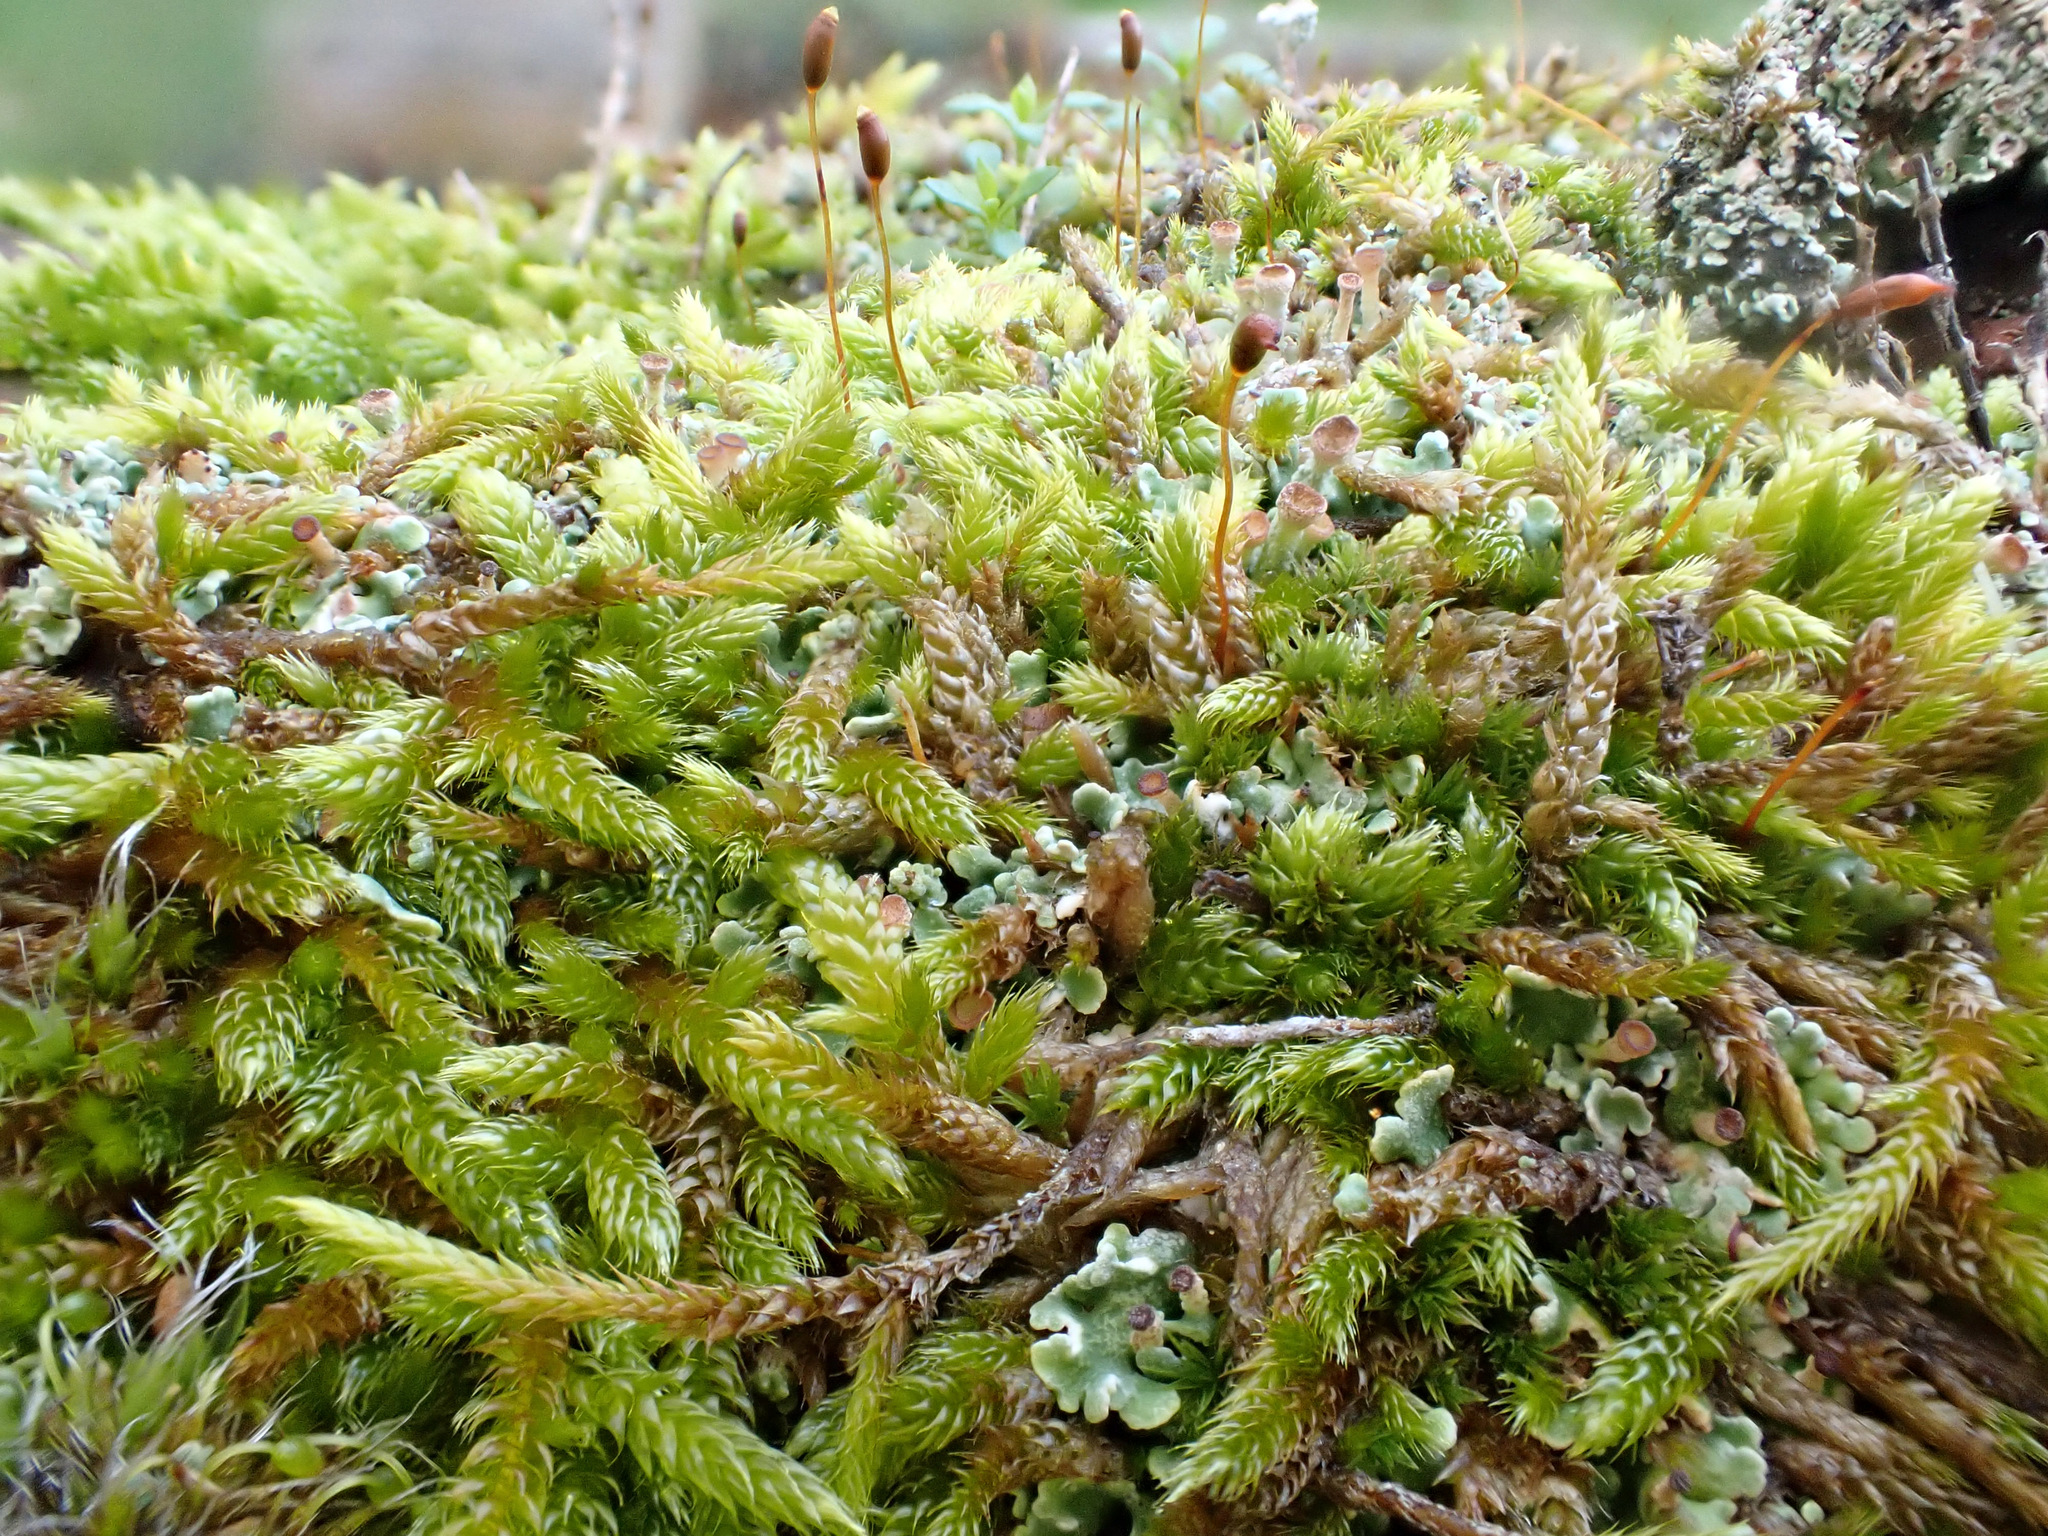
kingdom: Plantae
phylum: Bryophyta
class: Bryopsida
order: Hypnales
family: Hypnaceae
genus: Hypnum
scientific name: Hypnum cupressiforme
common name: Cypress-leaved plait-moss
